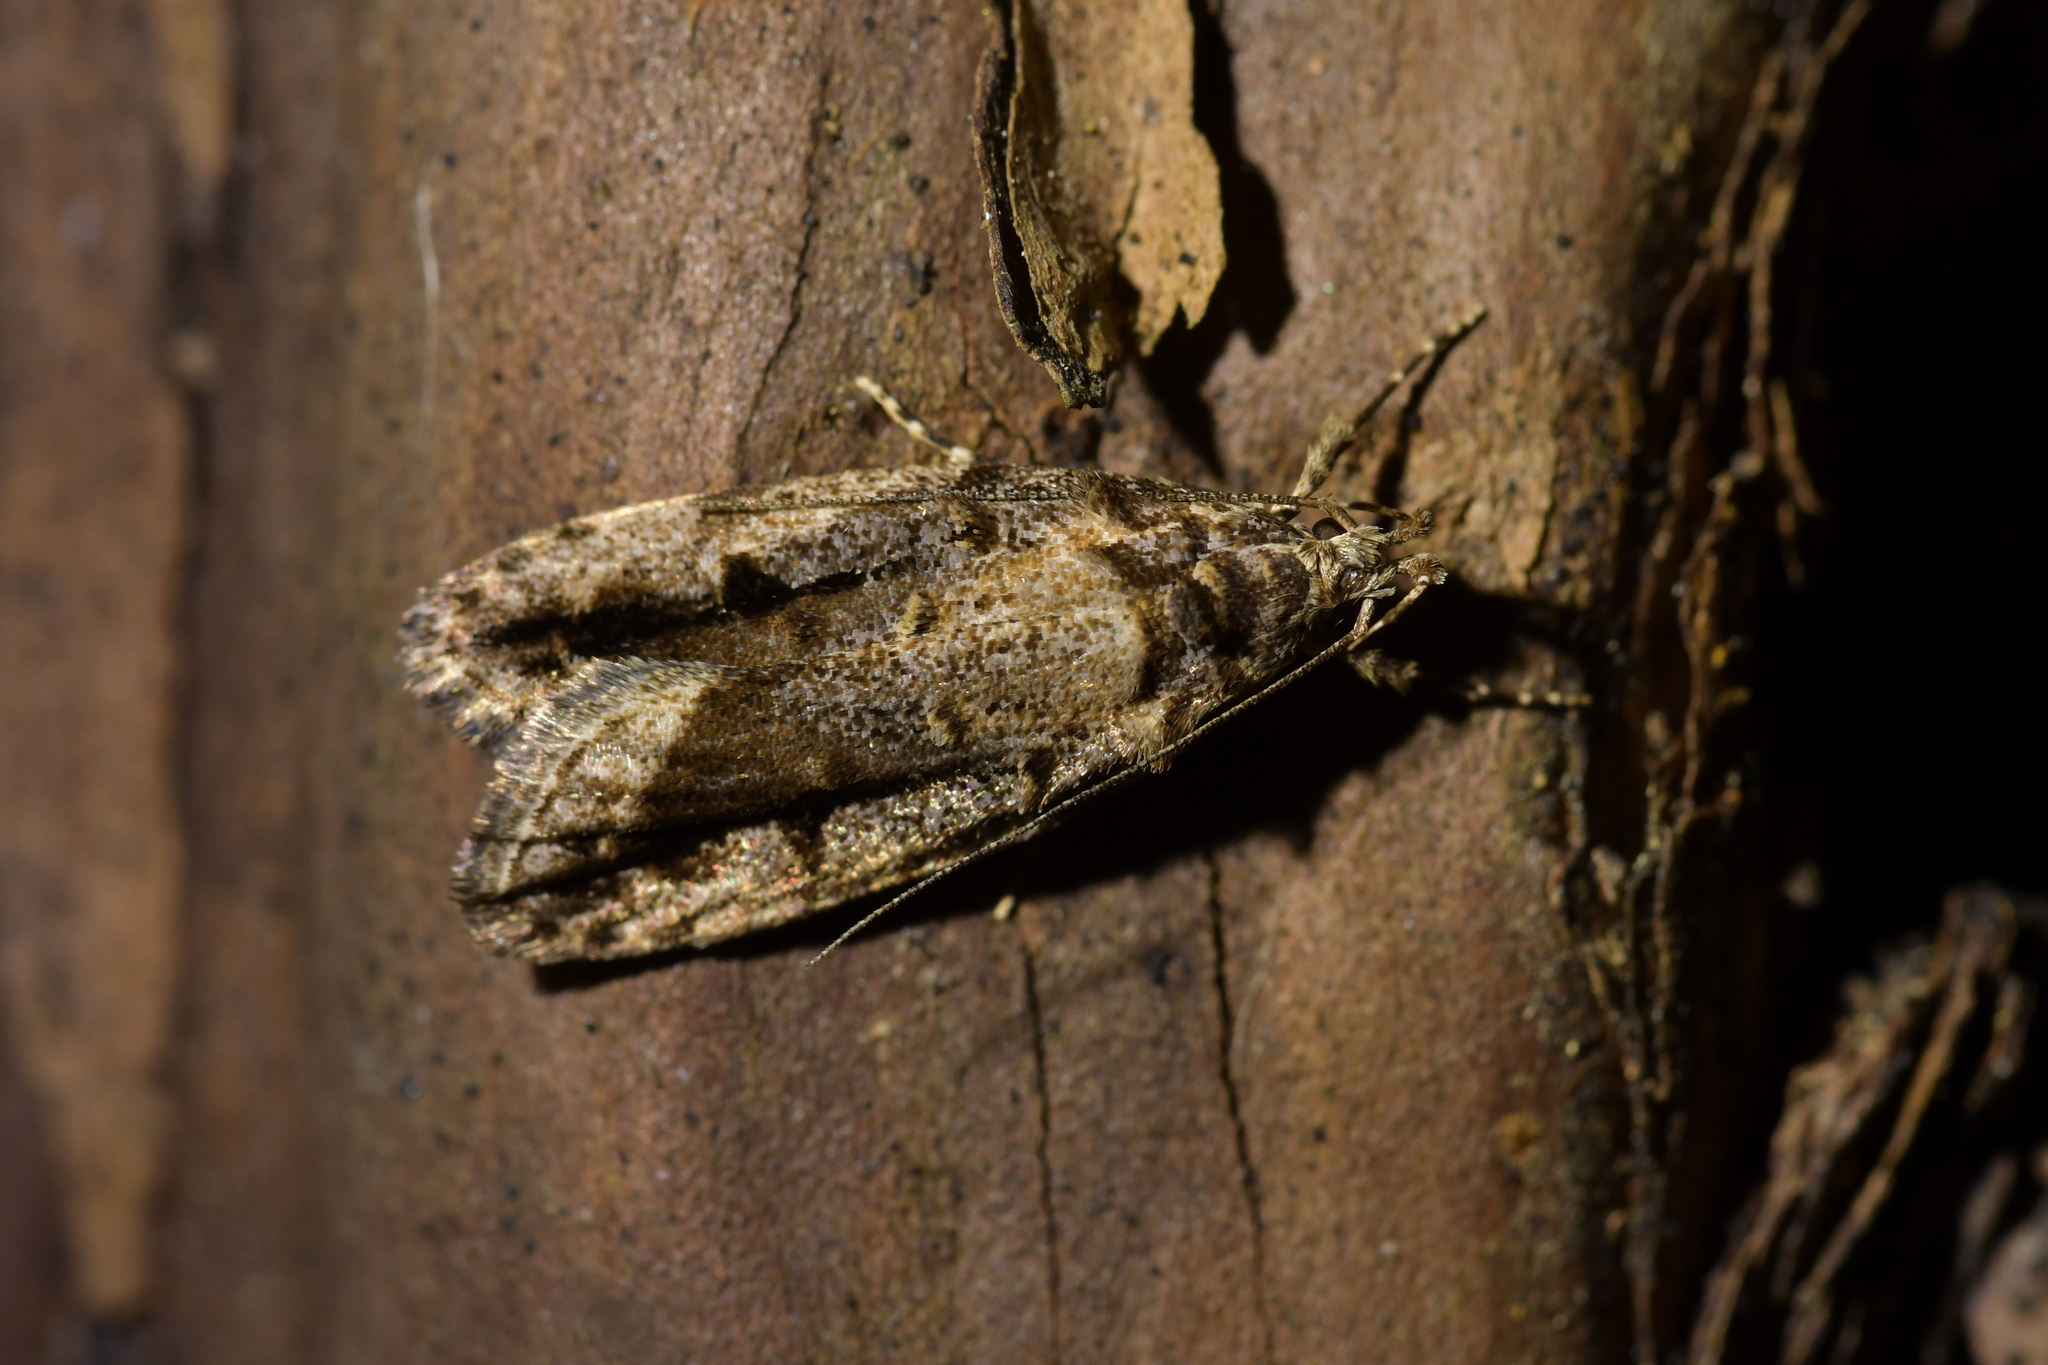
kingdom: Animalia
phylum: Arthropoda
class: Insecta
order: Lepidoptera
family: Oecophoridae
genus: Izatha
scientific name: Izatha caustopa
